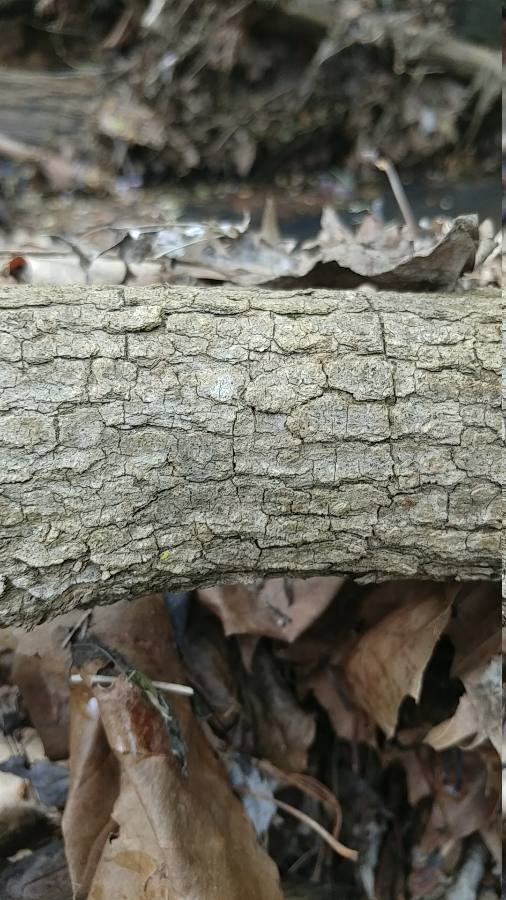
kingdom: Plantae
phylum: Tracheophyta
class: Magnoliopsida
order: Sapindales
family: Sapindaceae
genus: Acer
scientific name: Acer negundo
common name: Ashleaf maple
